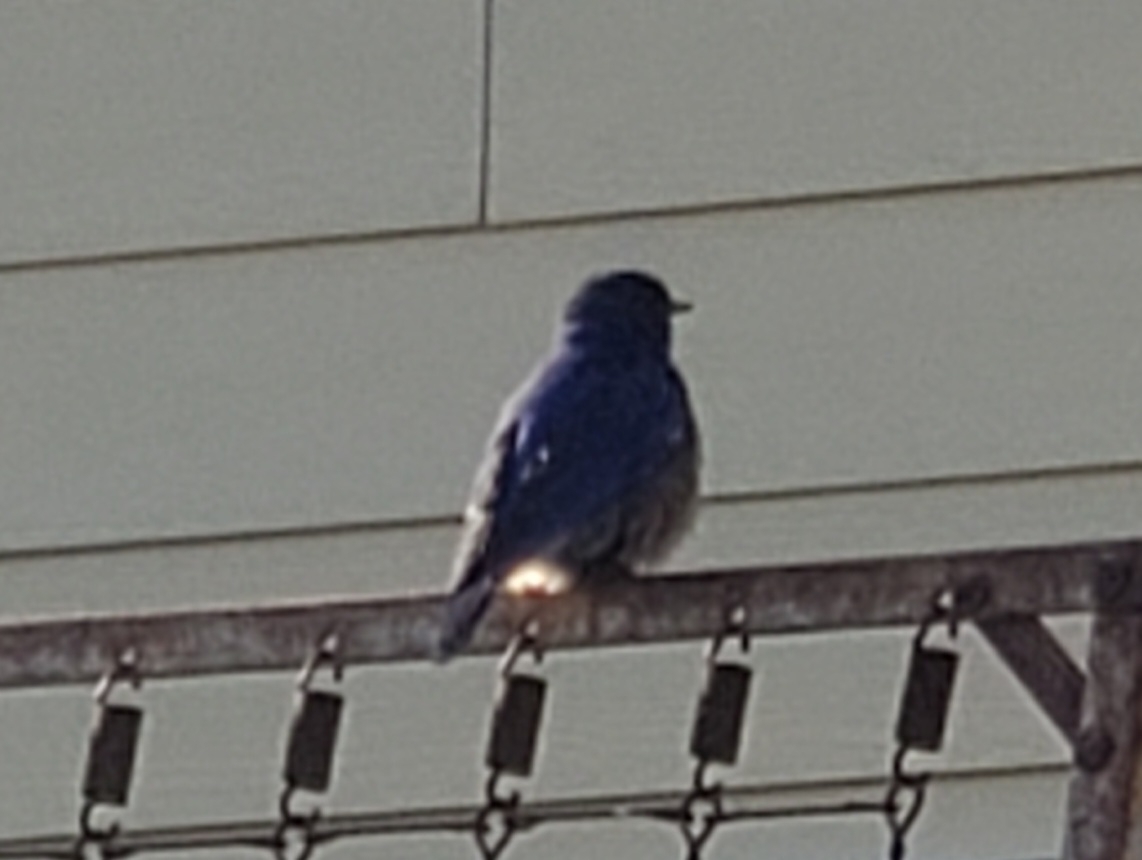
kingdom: Animalia
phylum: Chordata
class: Aves
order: Passeriformes
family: Turdidae
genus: Sialia
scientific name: Sialia mexicana
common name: Western bluebird
